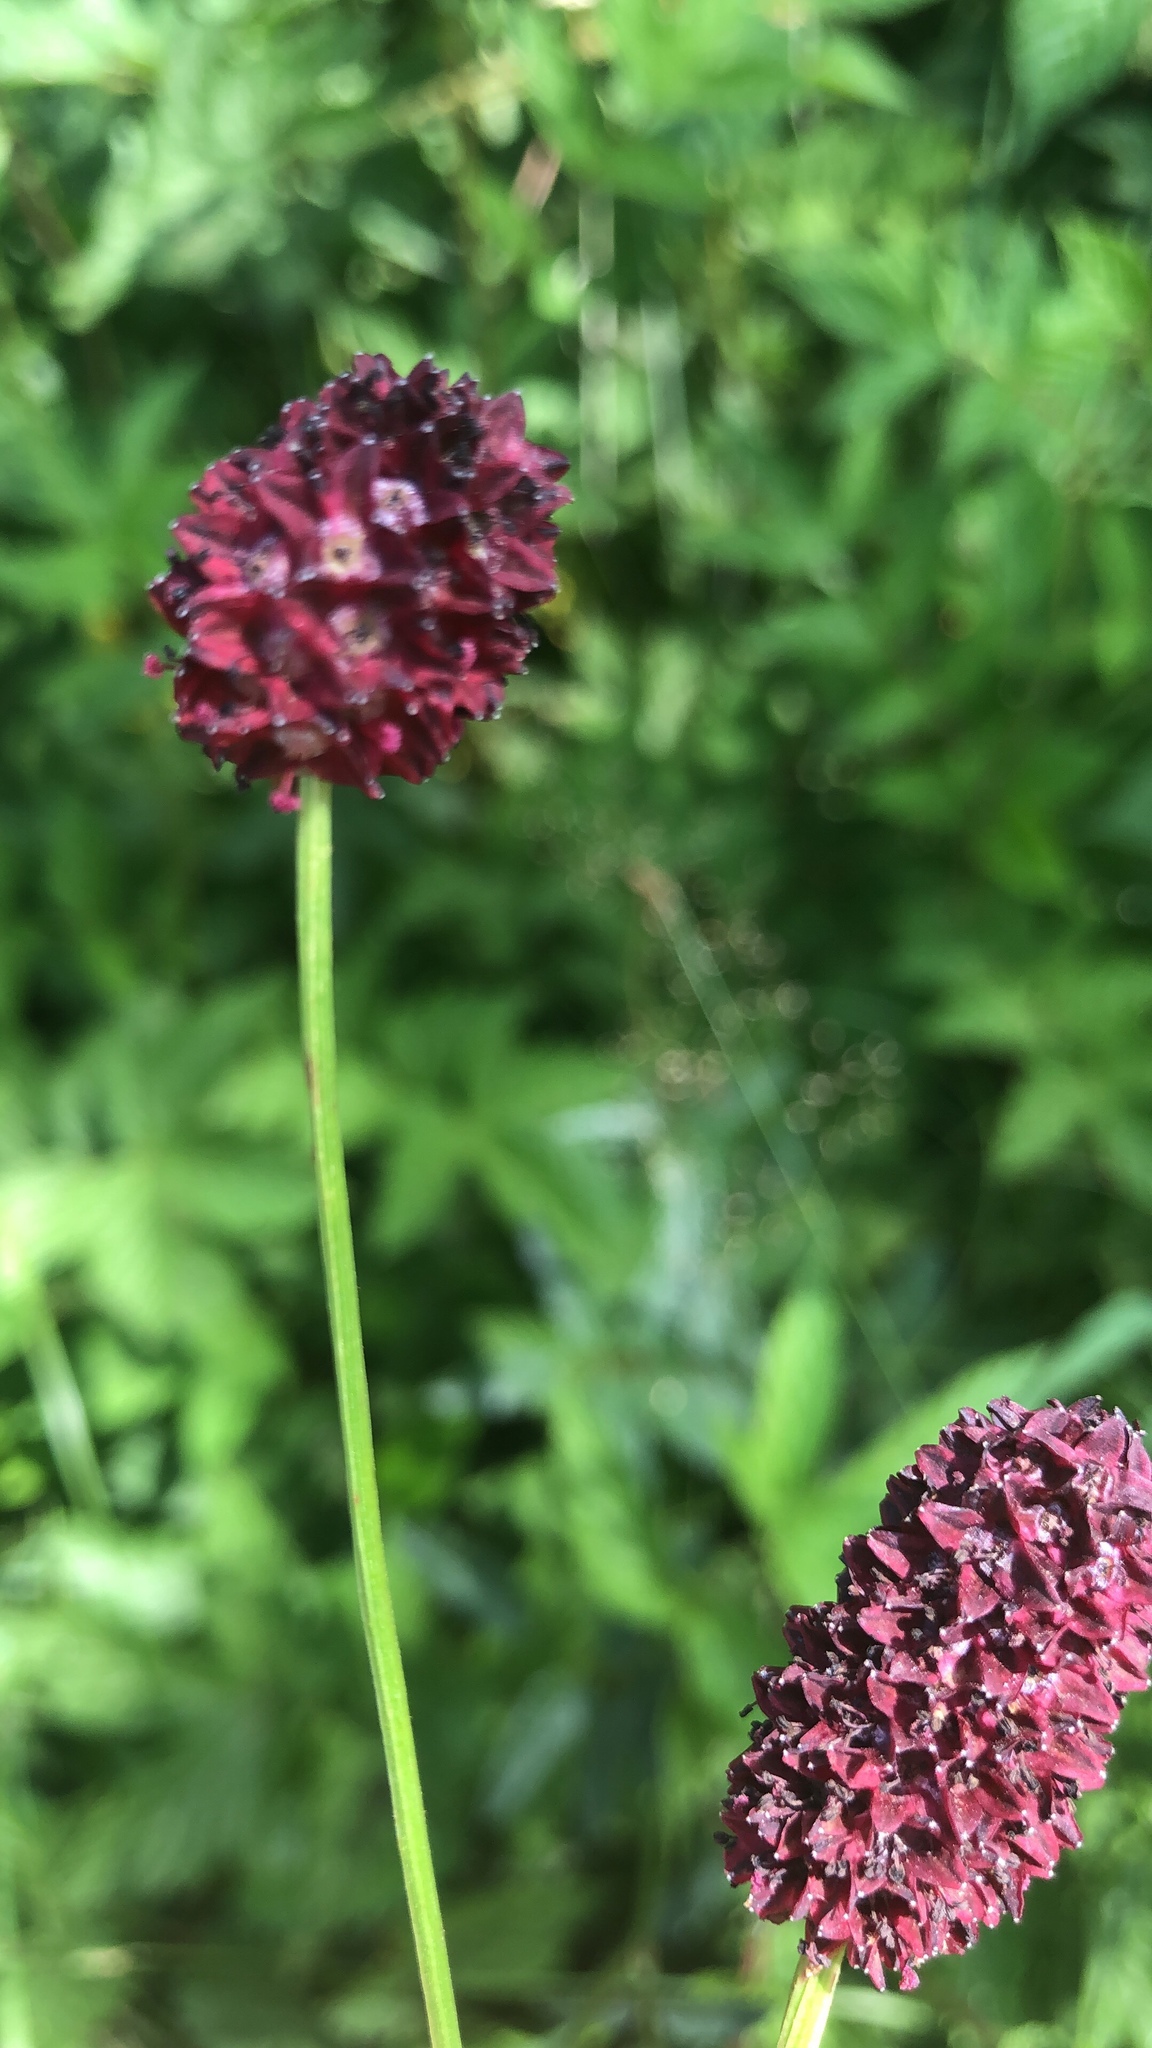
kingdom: Plantae
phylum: Tracheophyta
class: Magnoliopsida
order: Rosales
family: Rosaceae
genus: Sanguisorba
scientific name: Sanguisorba officinalis
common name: Great burnet
